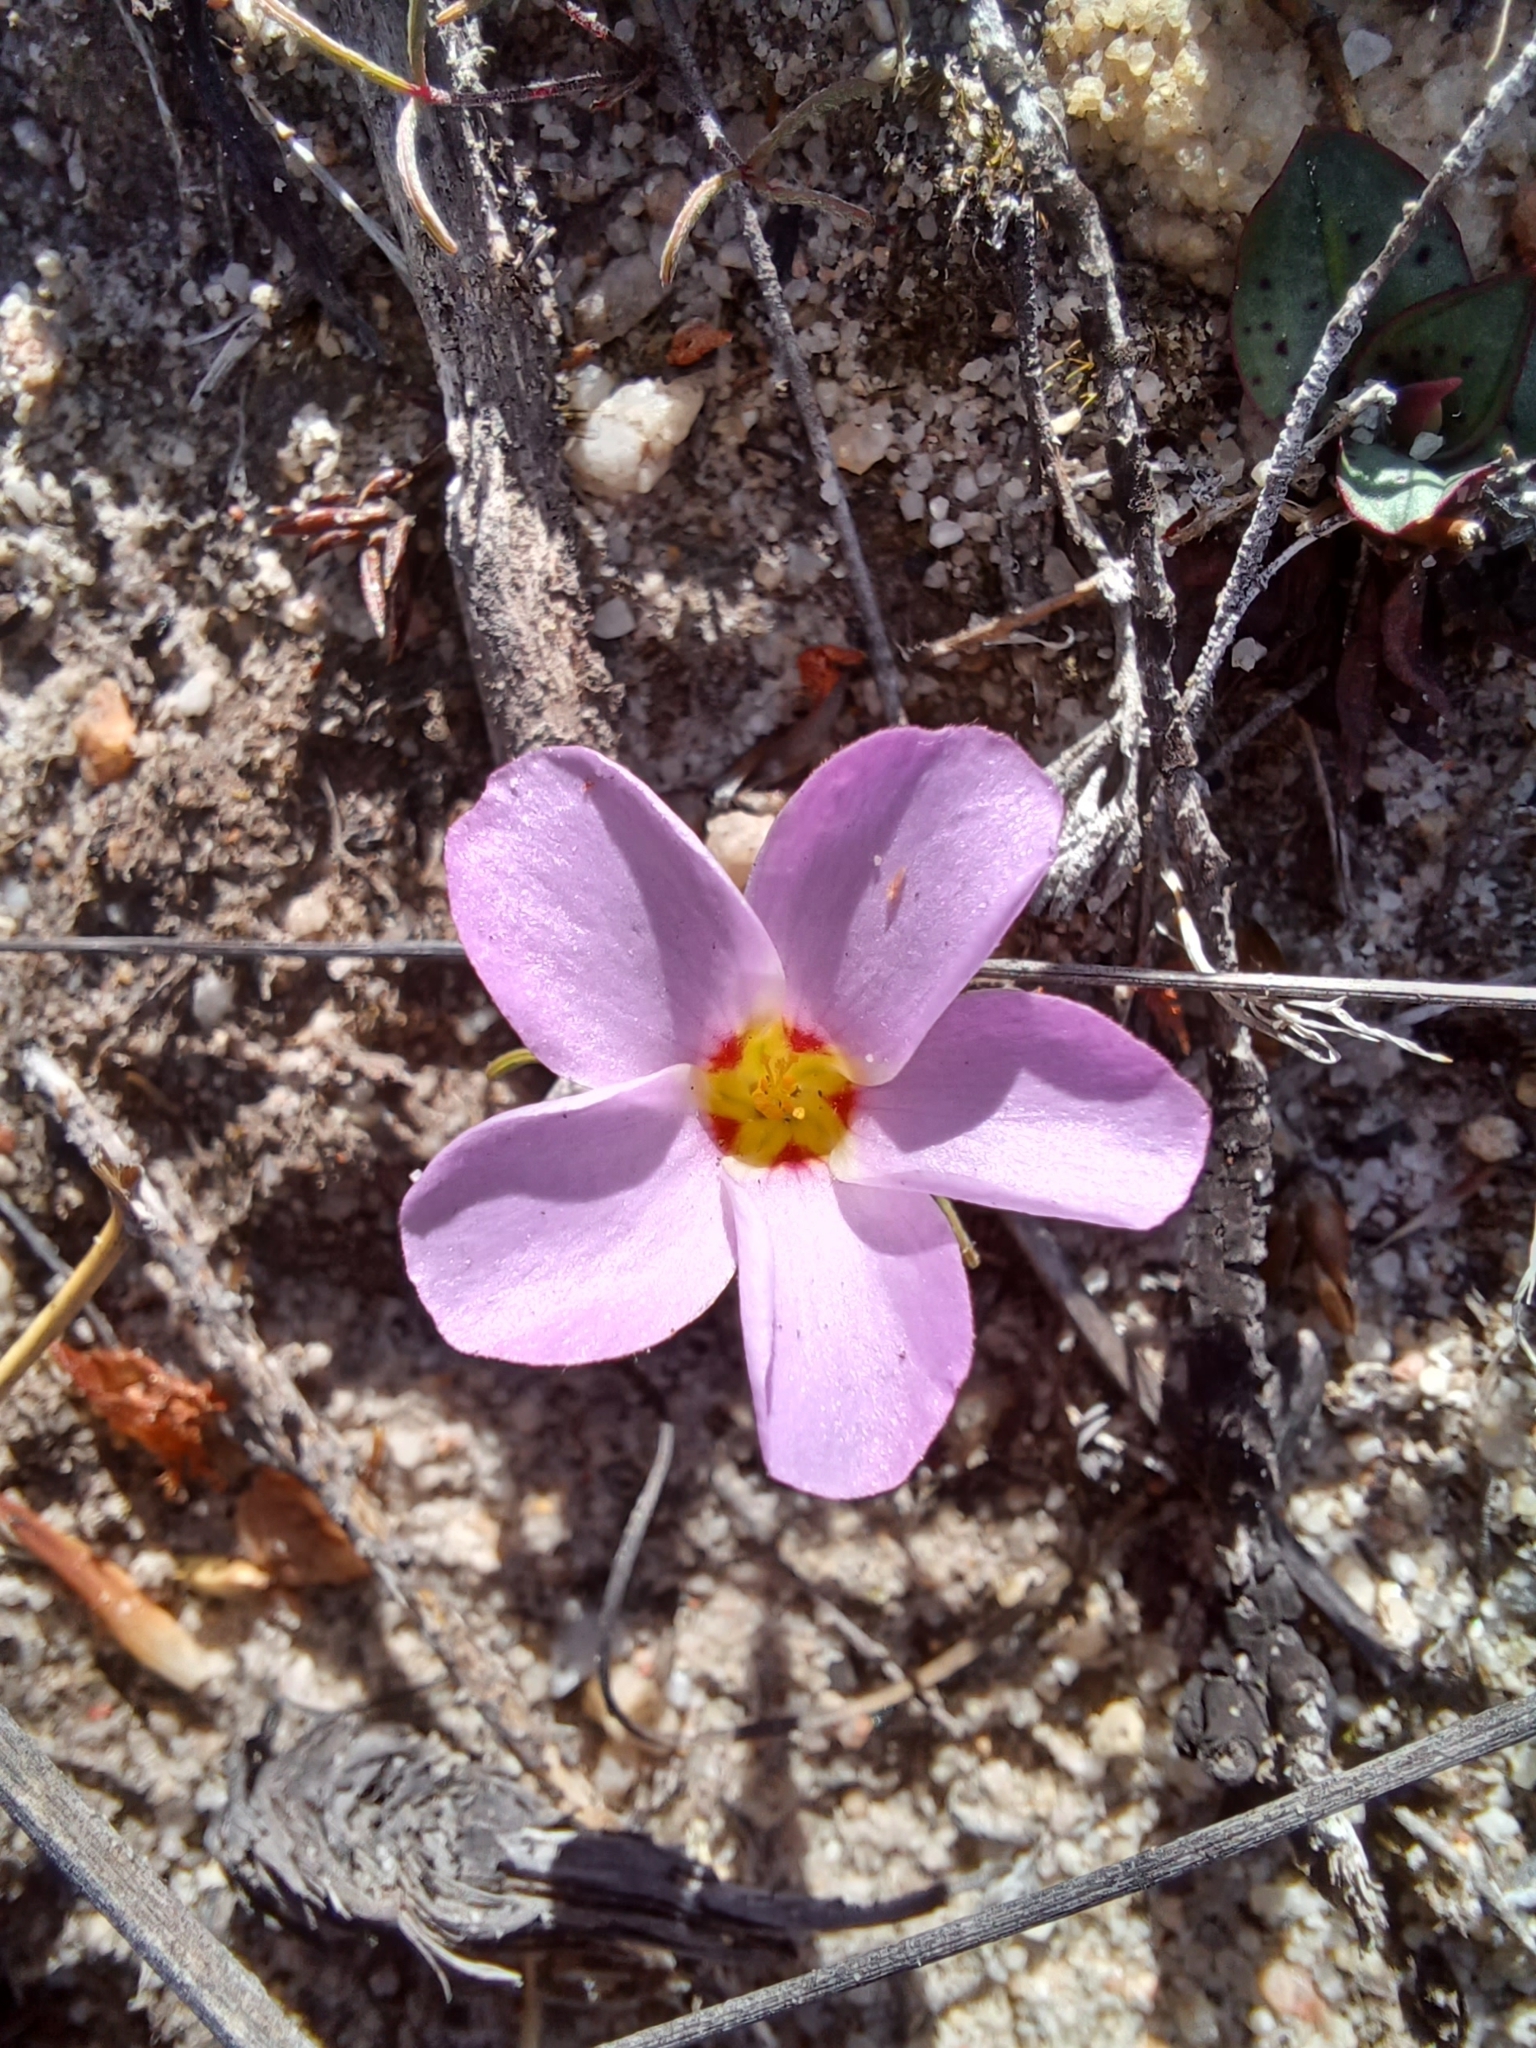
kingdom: Plantae
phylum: Tracheophyta
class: Magnoliopsida
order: Oxalidales
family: Oxalidaceae
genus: Oxalis
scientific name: Oxalis stokoei
